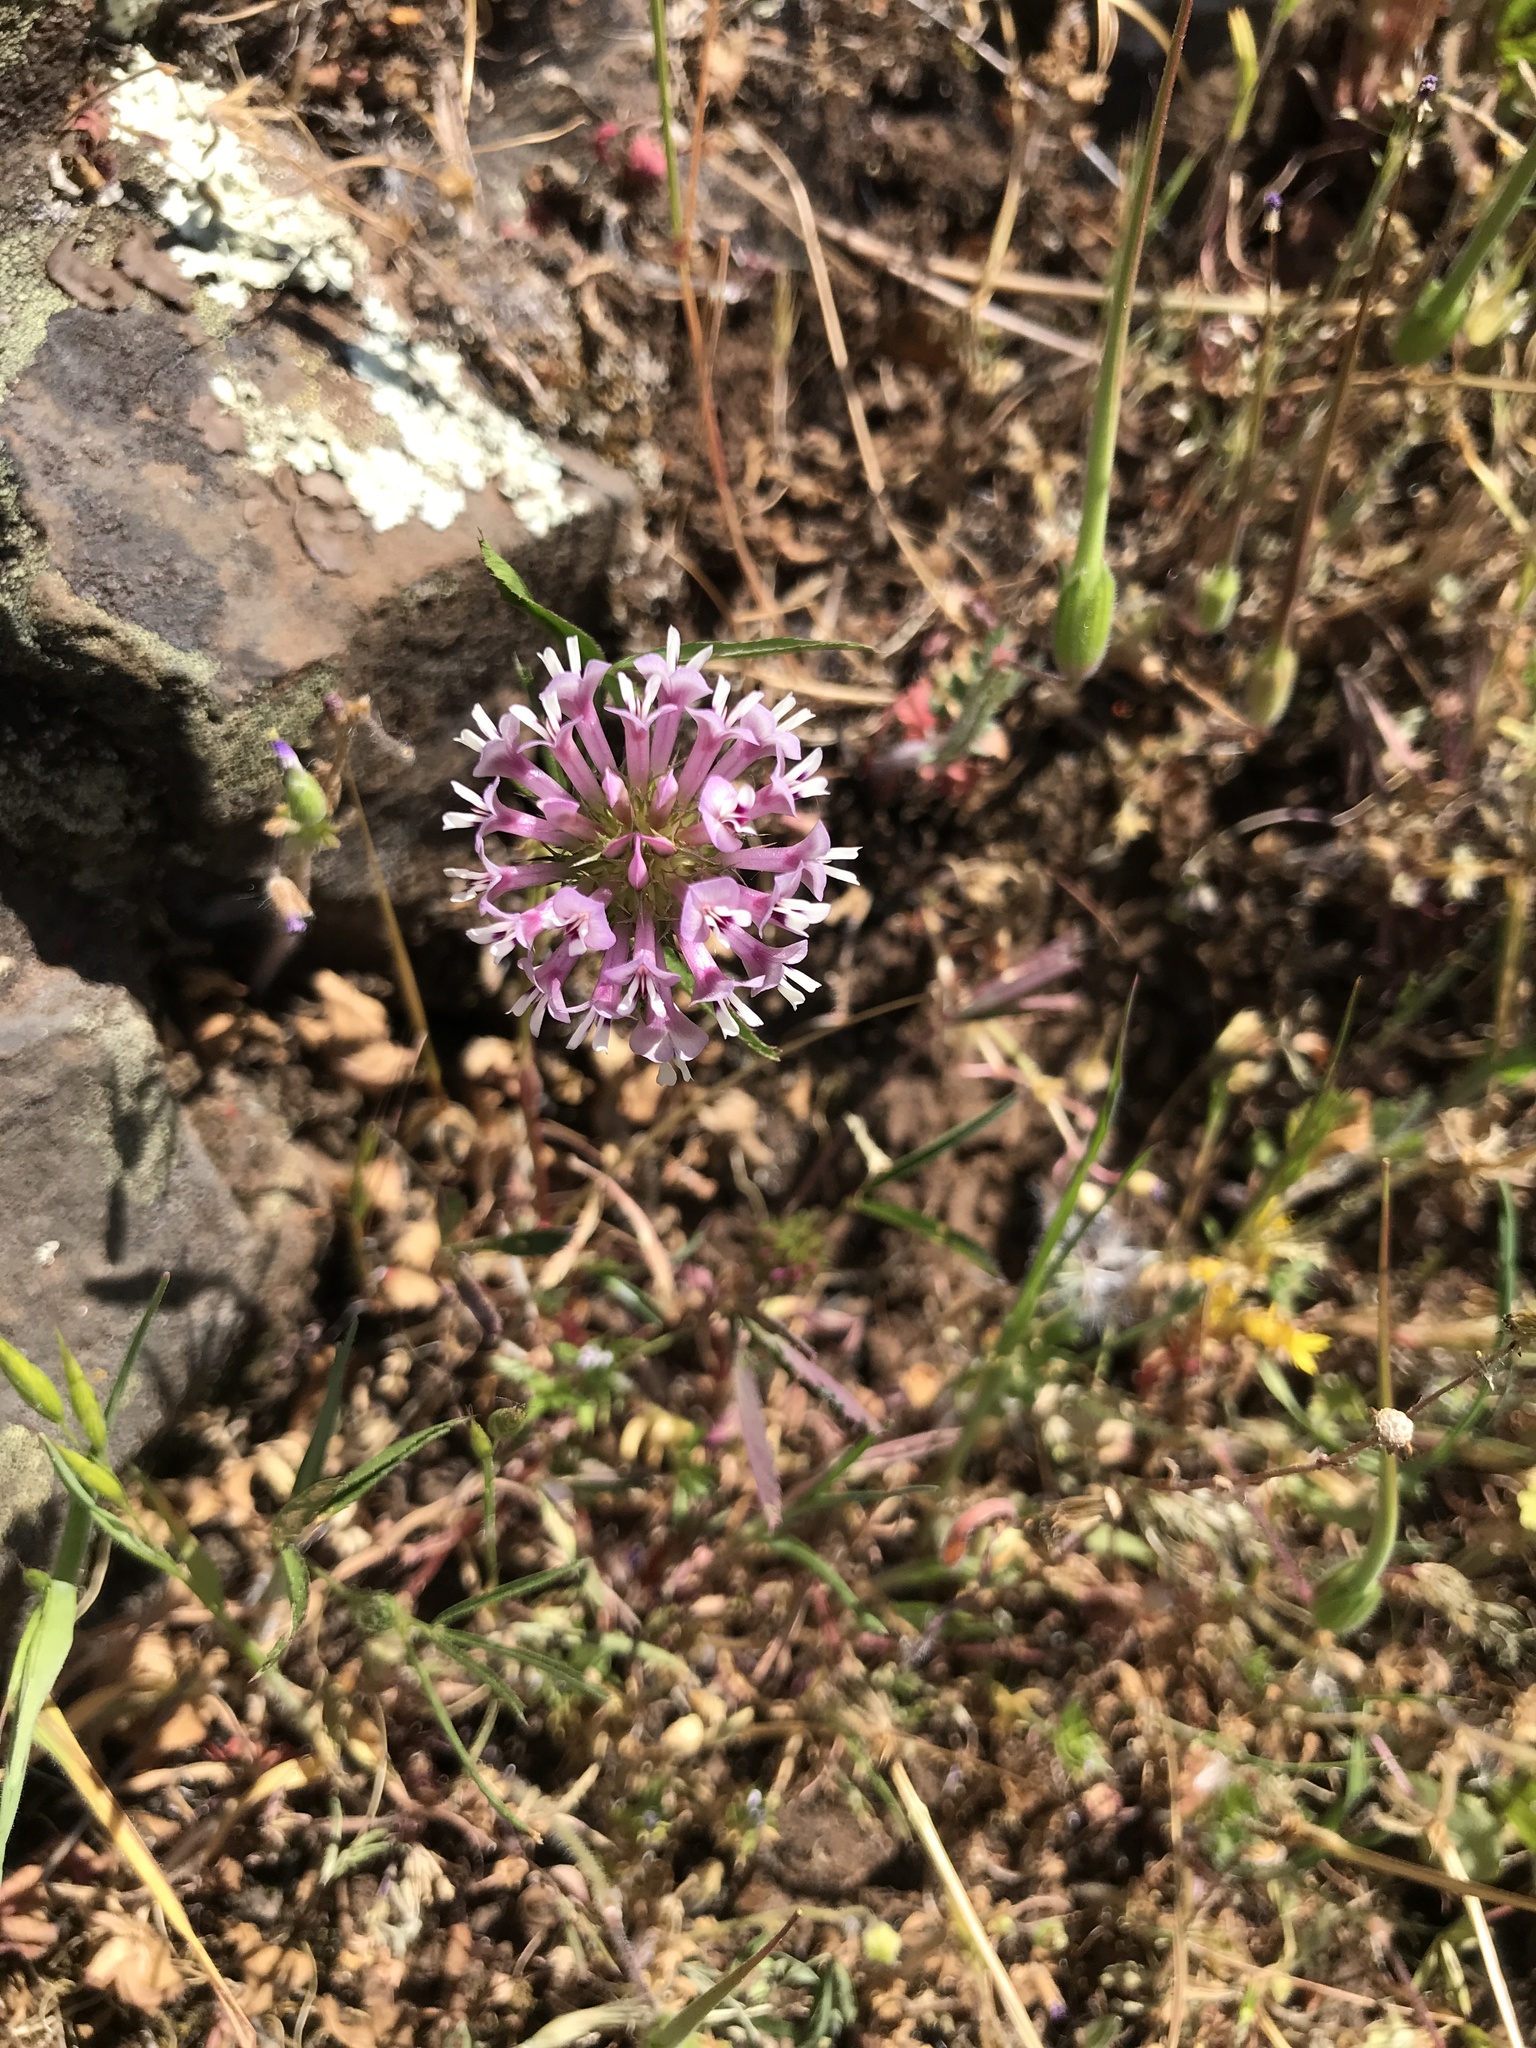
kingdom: Plantae
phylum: Tracheophyta
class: Magnoliopsida
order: Fabales
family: Fabaceae
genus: Trifolium
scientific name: Trifolium willdenovii
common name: Tomcat clover
